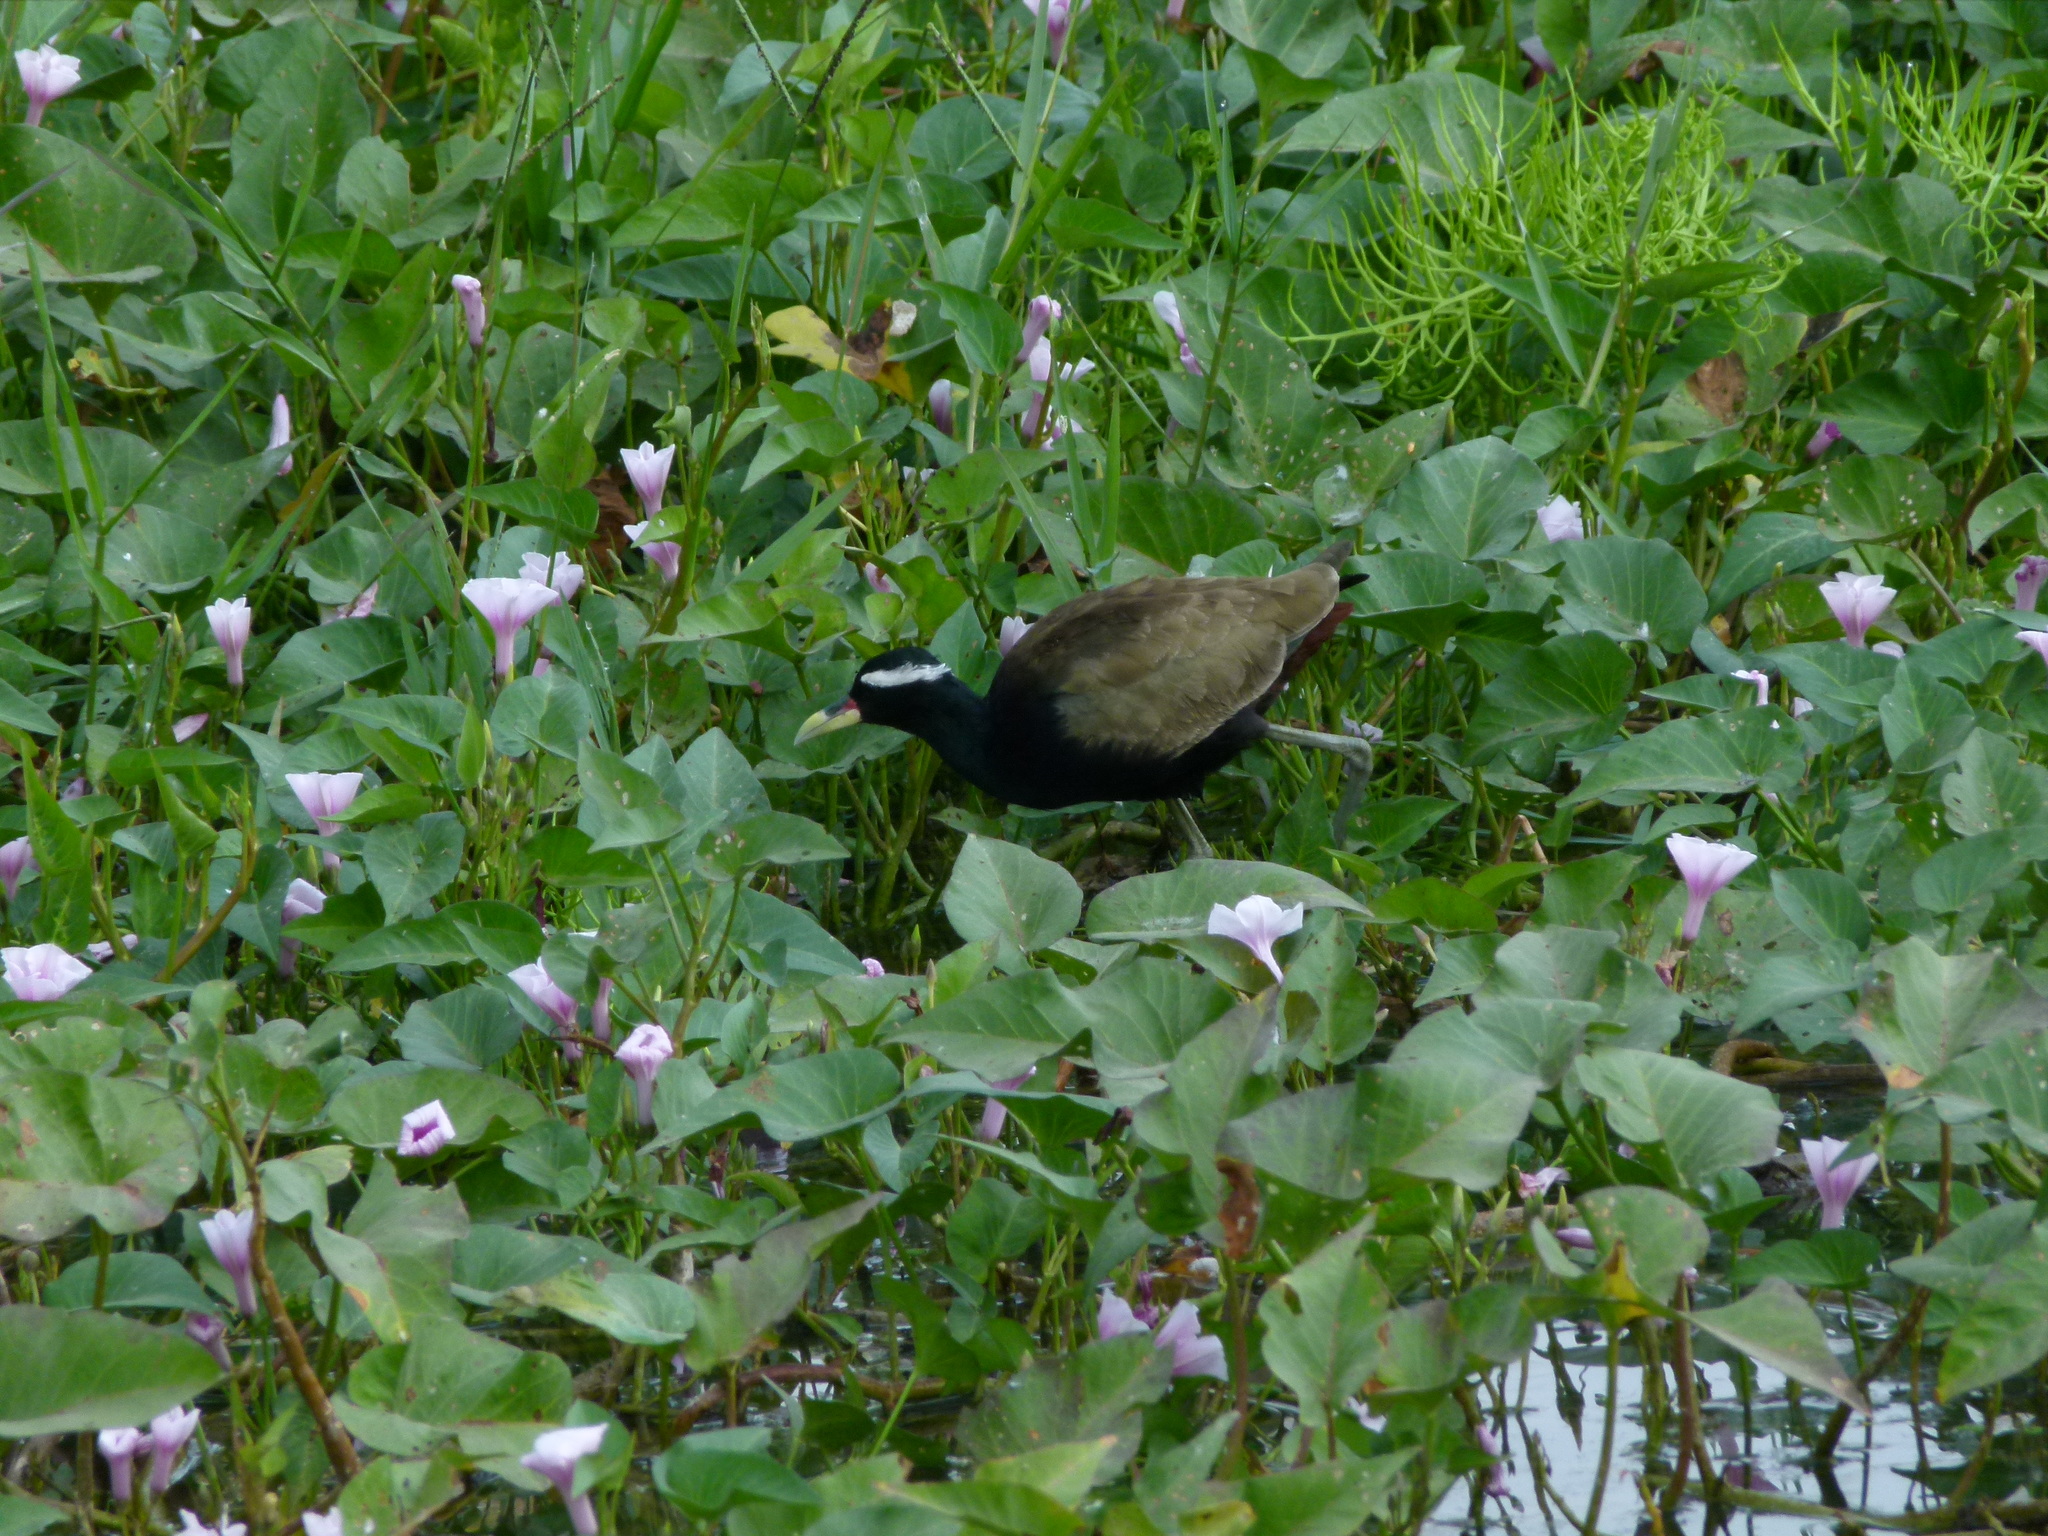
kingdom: Animalia
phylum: Chordata
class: Aves
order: Charadriiformes
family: Jacanidae
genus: Metopidius
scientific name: Metopidius indicus
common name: Bronze-winged jacana
